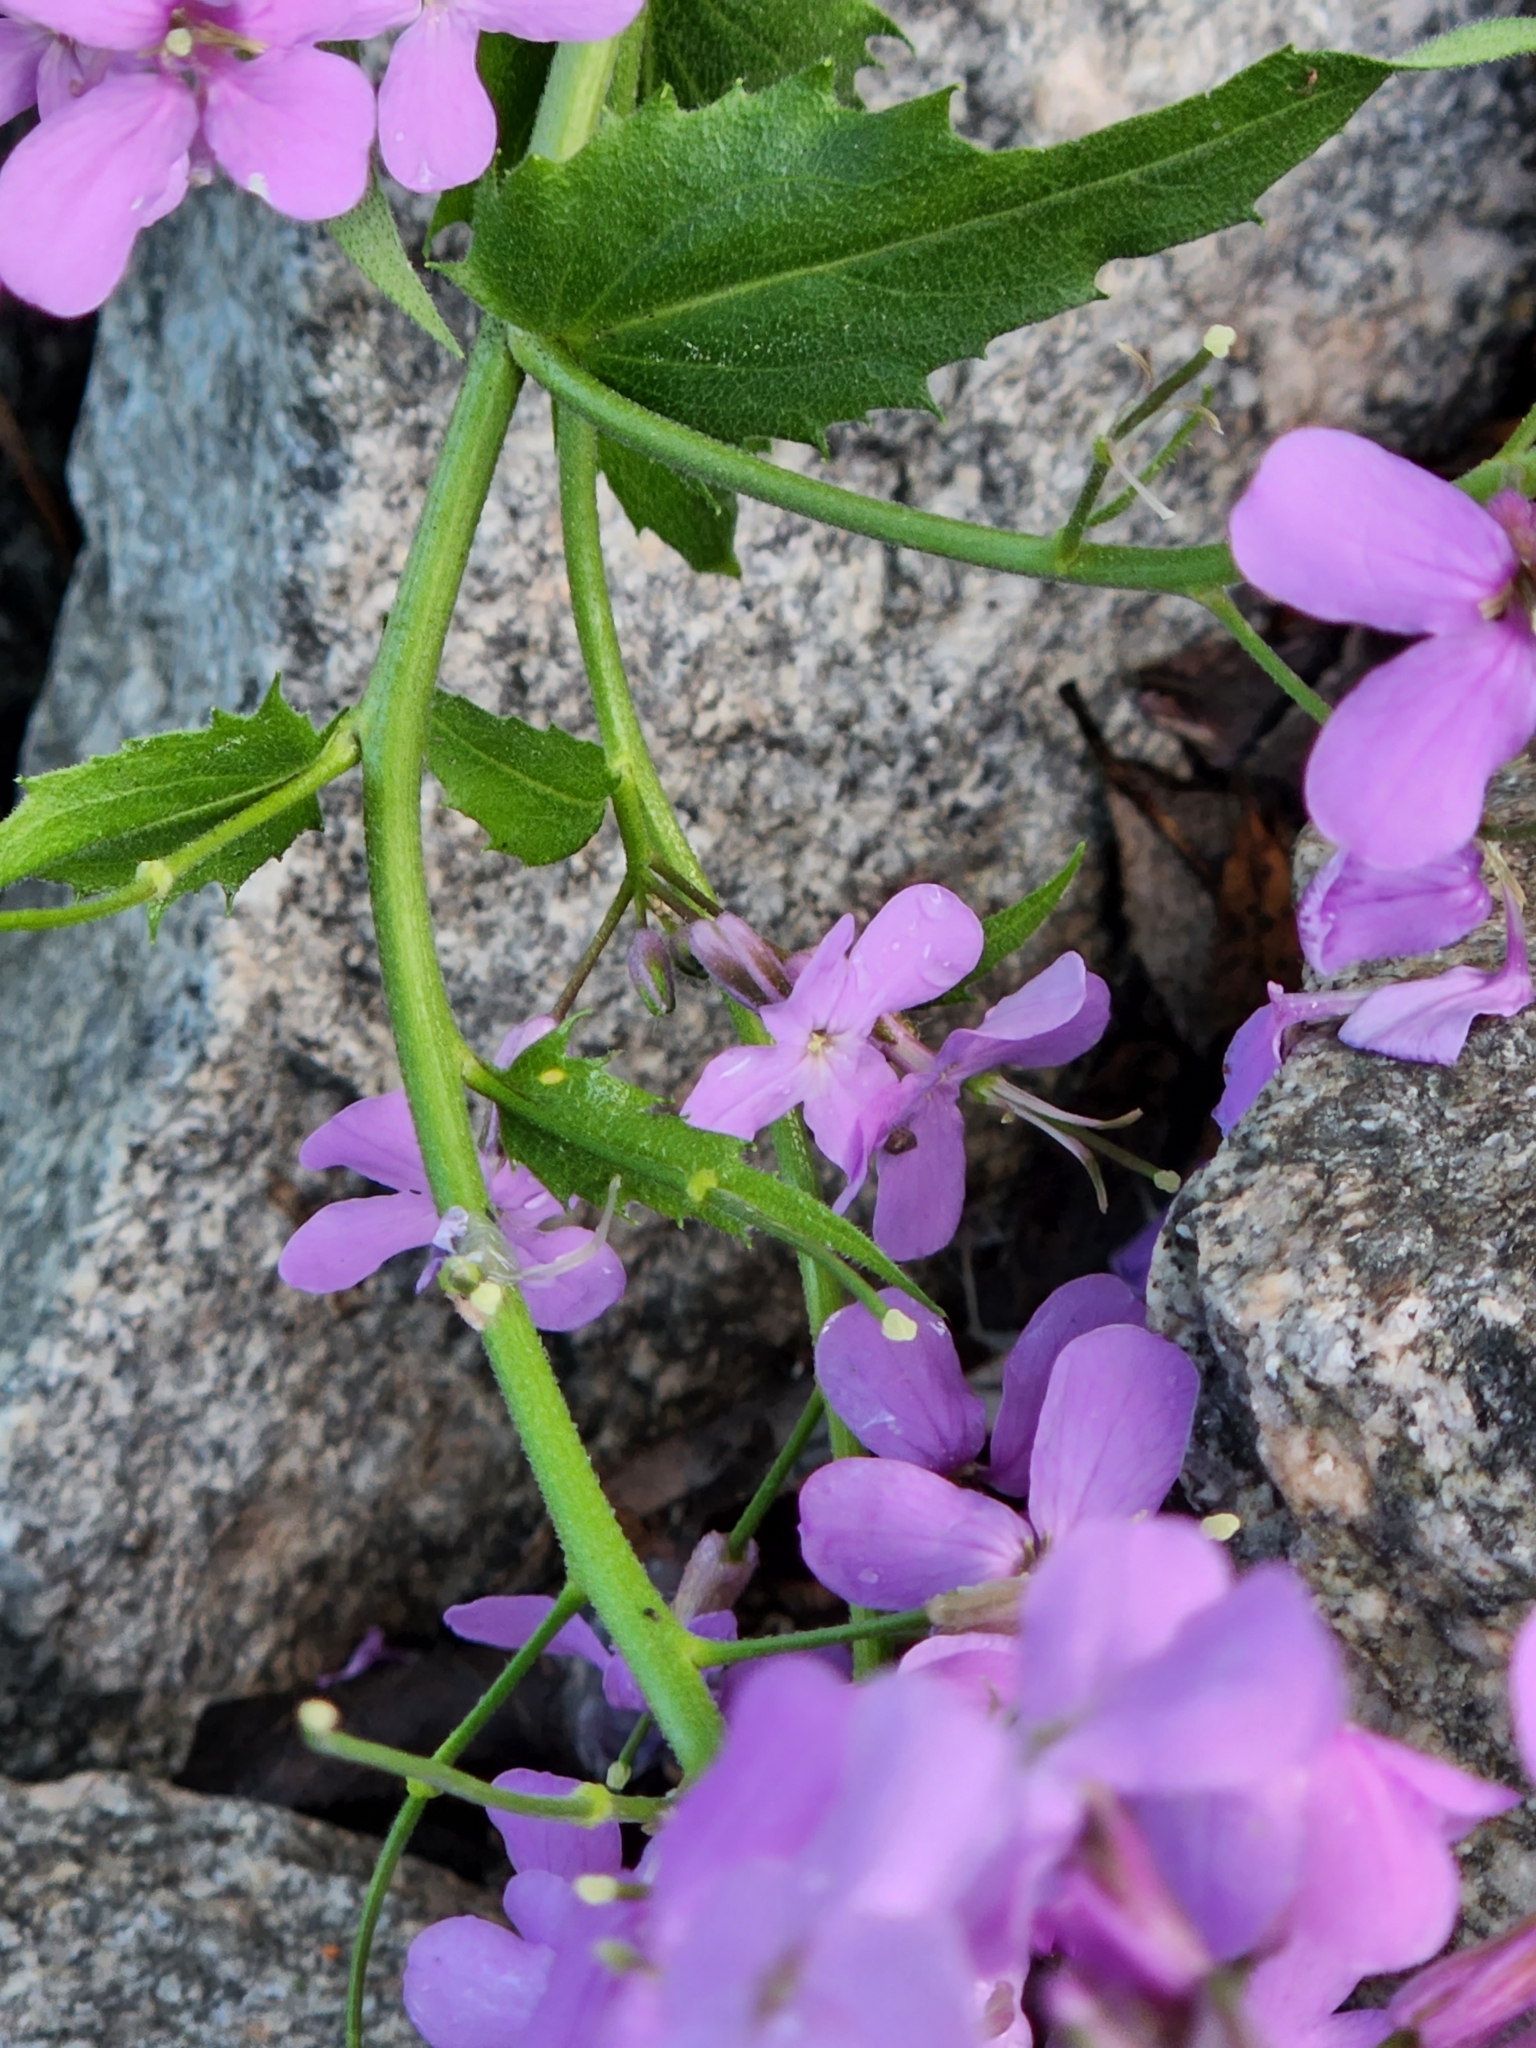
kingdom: Plantae
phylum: Tracheophyta
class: Magnoliopsida
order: Brassicales
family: Brassicaceae
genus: Hesperis
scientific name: Hesperis matronalis
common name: Dame's-violet
